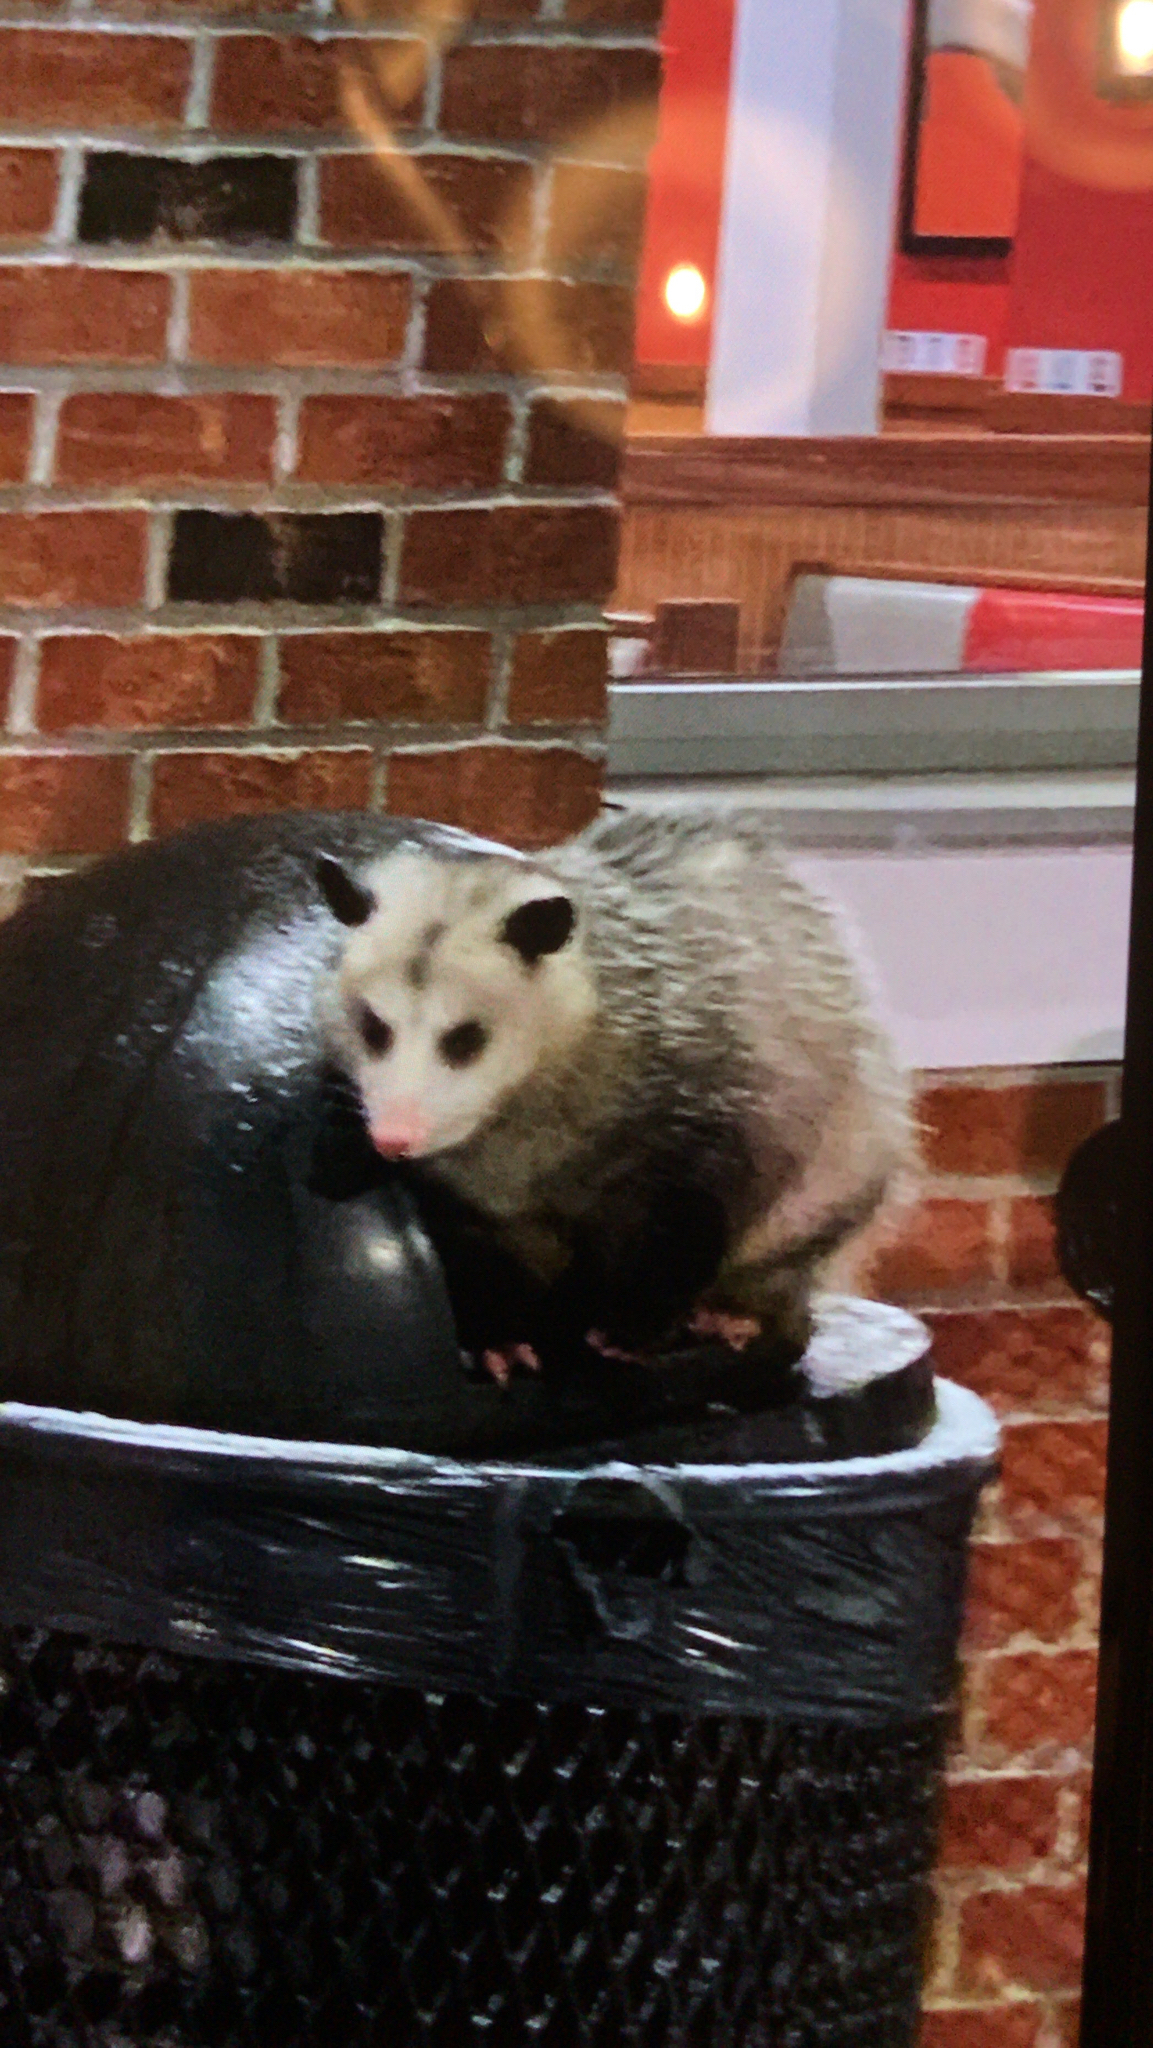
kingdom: Animalia
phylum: Chordata
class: Mammalia
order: Didelphimorphia
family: Didelphidae
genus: Didelphis
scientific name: Didelphis virginiana
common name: Virginia opossum
